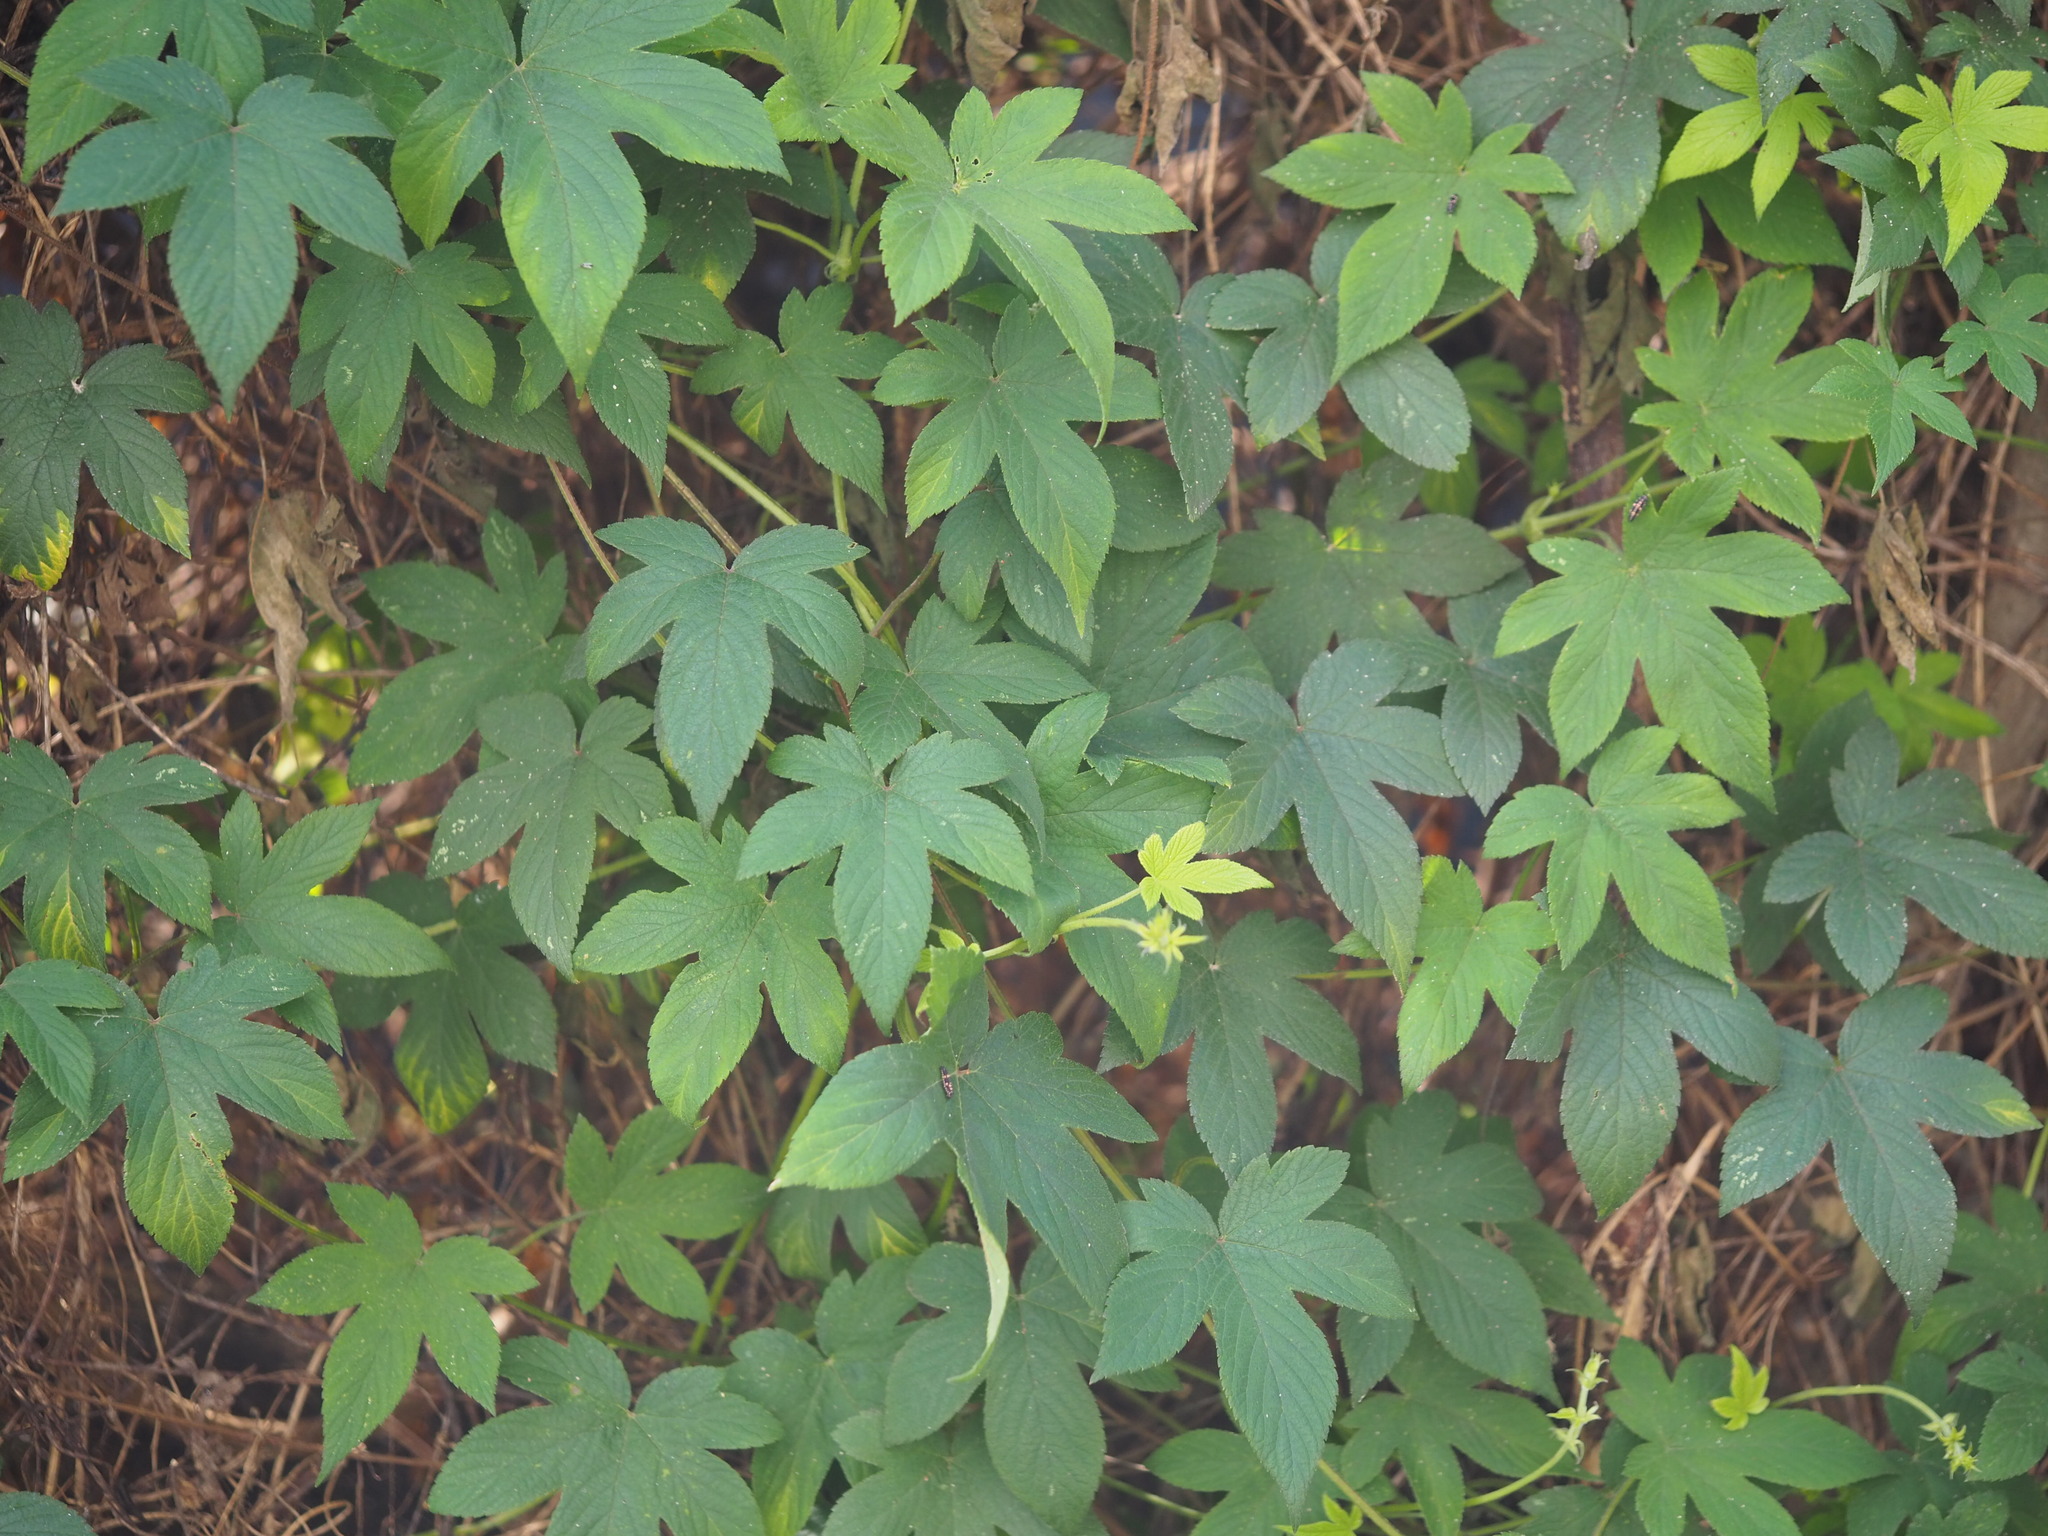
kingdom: Plantae
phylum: Tracheophyta
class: Magnoliopsida
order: Rosales
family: Cannabaceae
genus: Humulus
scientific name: Humulus scandens
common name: Japanese hop
